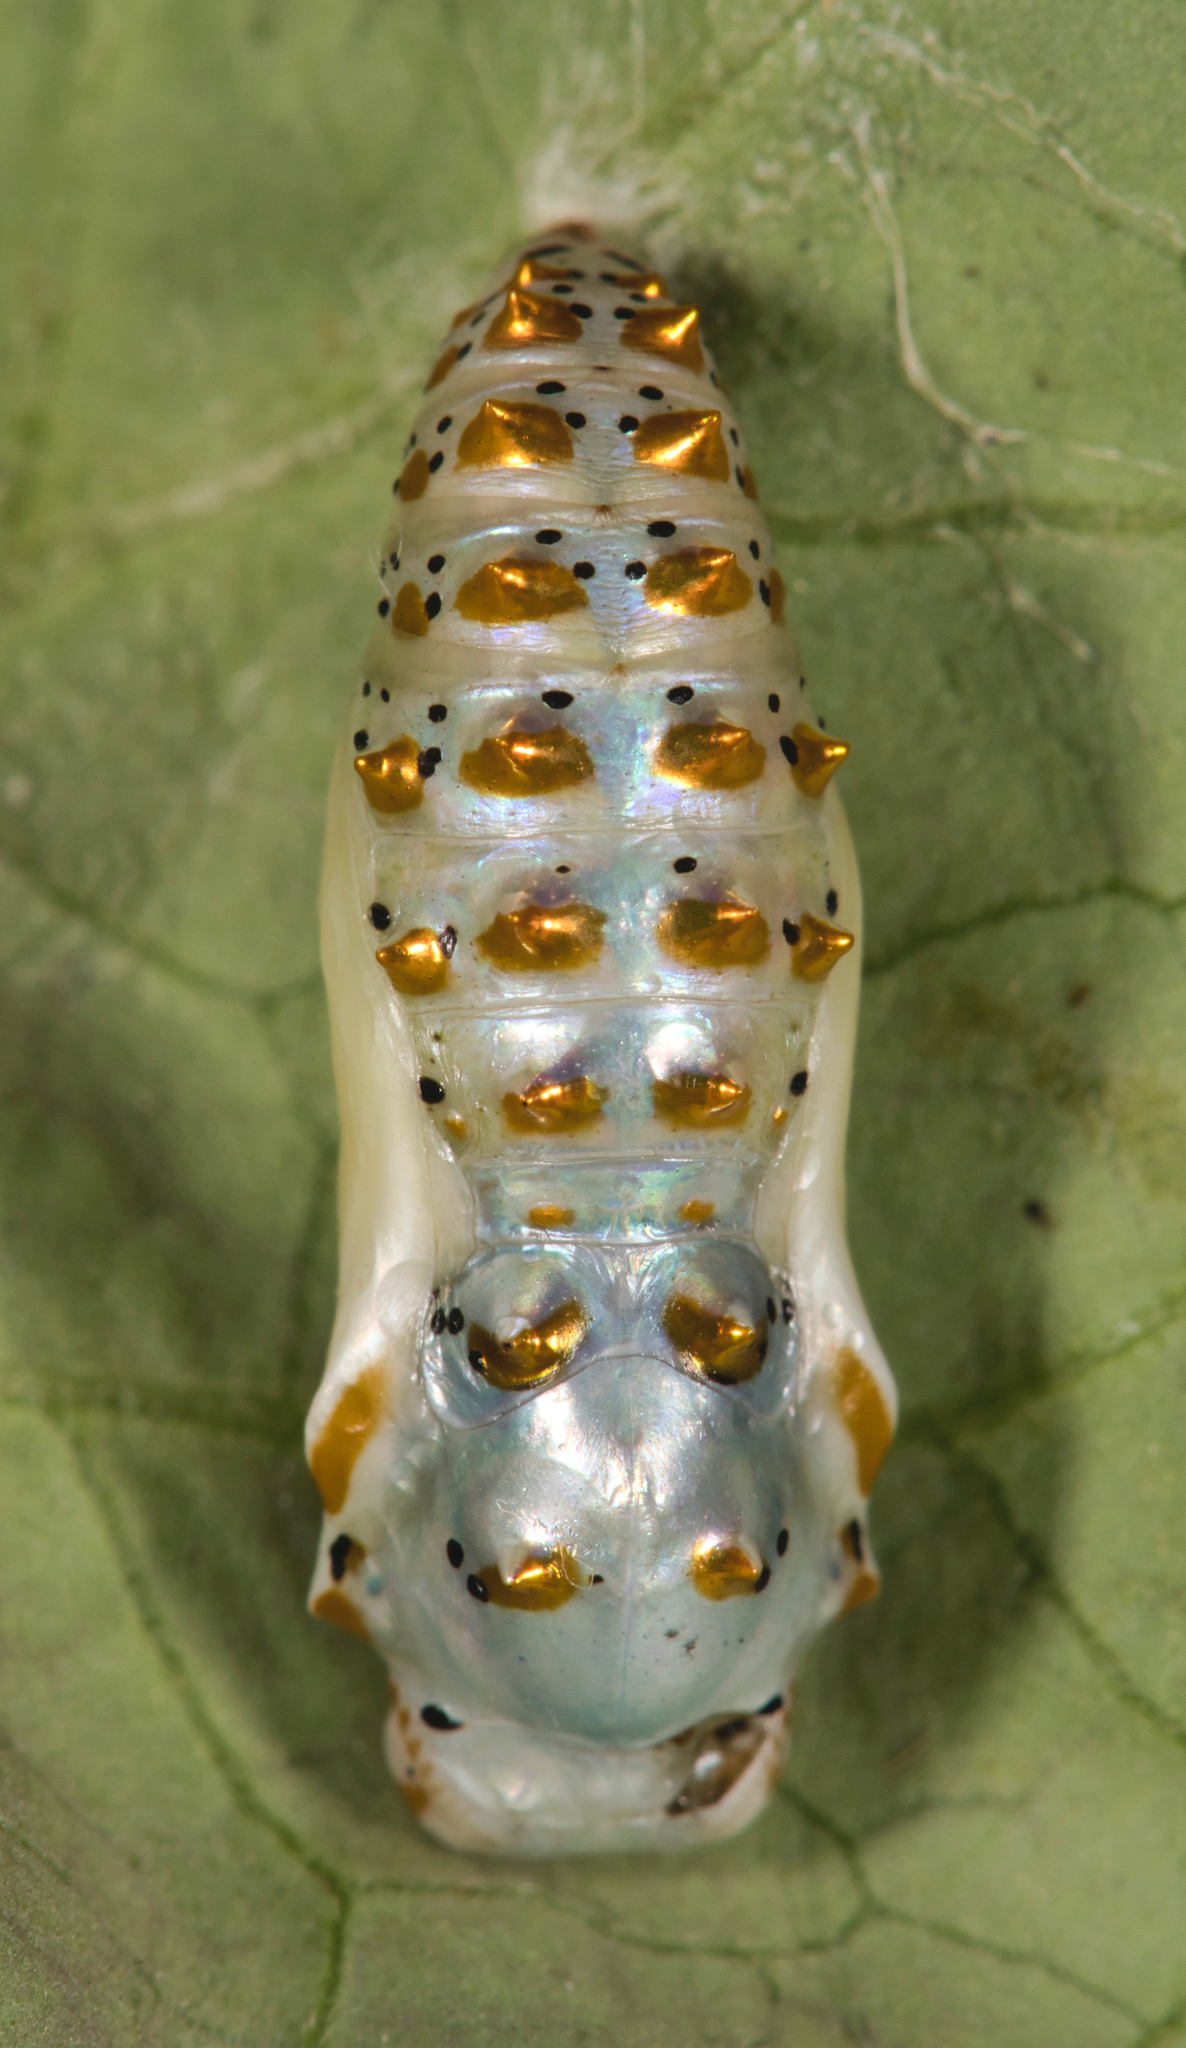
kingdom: Animalia
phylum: Arthropoda
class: Insecta
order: Lepidoptera
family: Nymphalidae
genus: Euptoieta
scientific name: Euptoieta claudia
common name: Variegated fritillary
